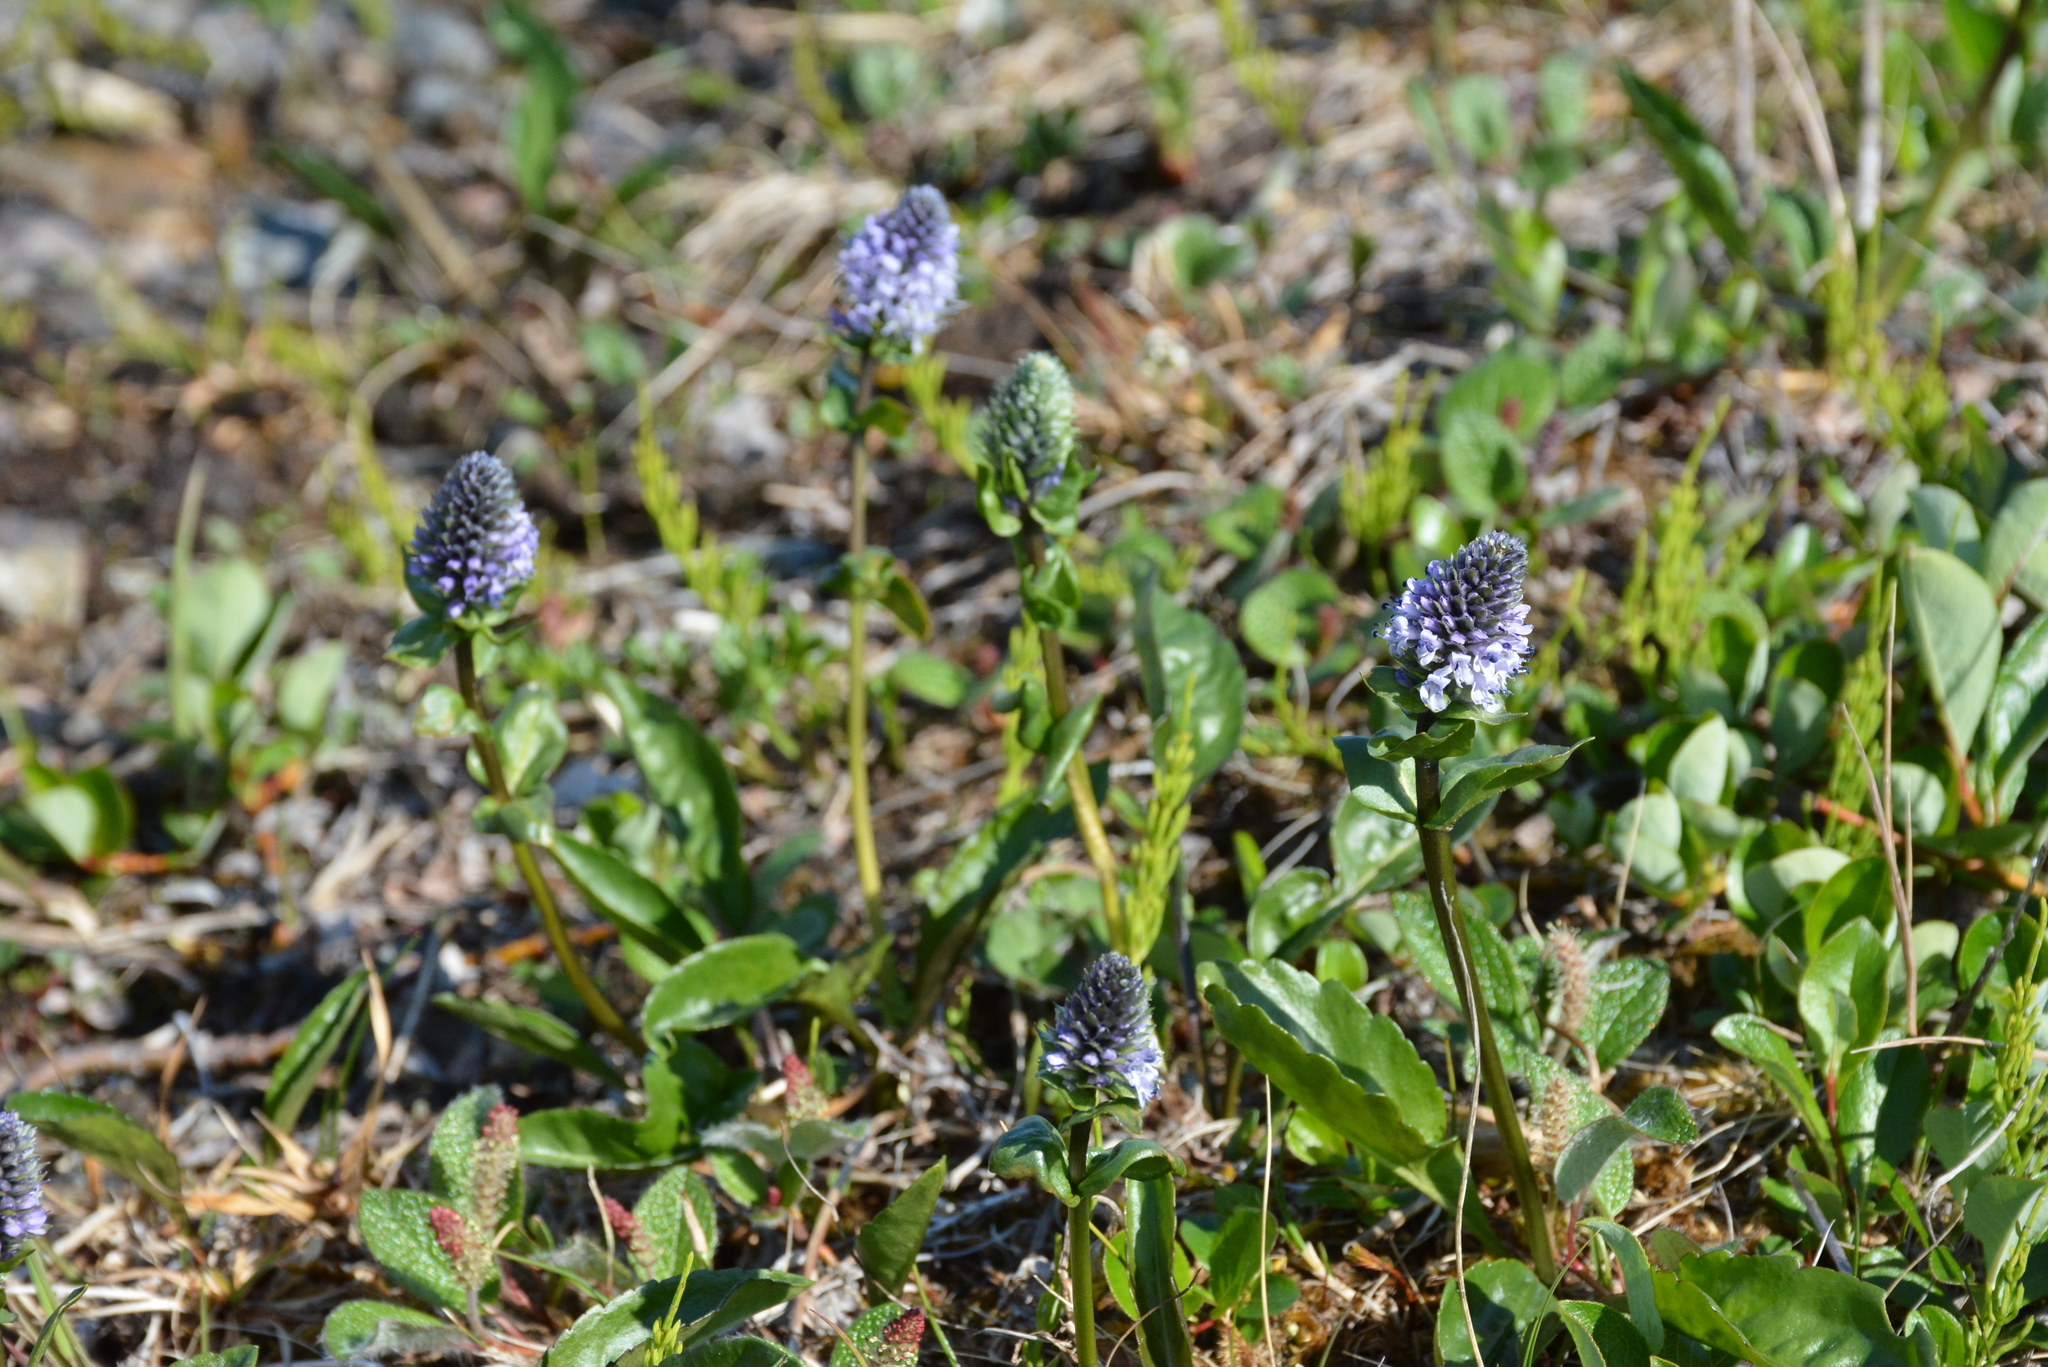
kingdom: Plantae
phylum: Tracheophyta
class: Magnoliopsida
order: Lamiales
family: Plantaginaceae
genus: Lagotis
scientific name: Lagotis glauca
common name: Glaucous weaselsnout
